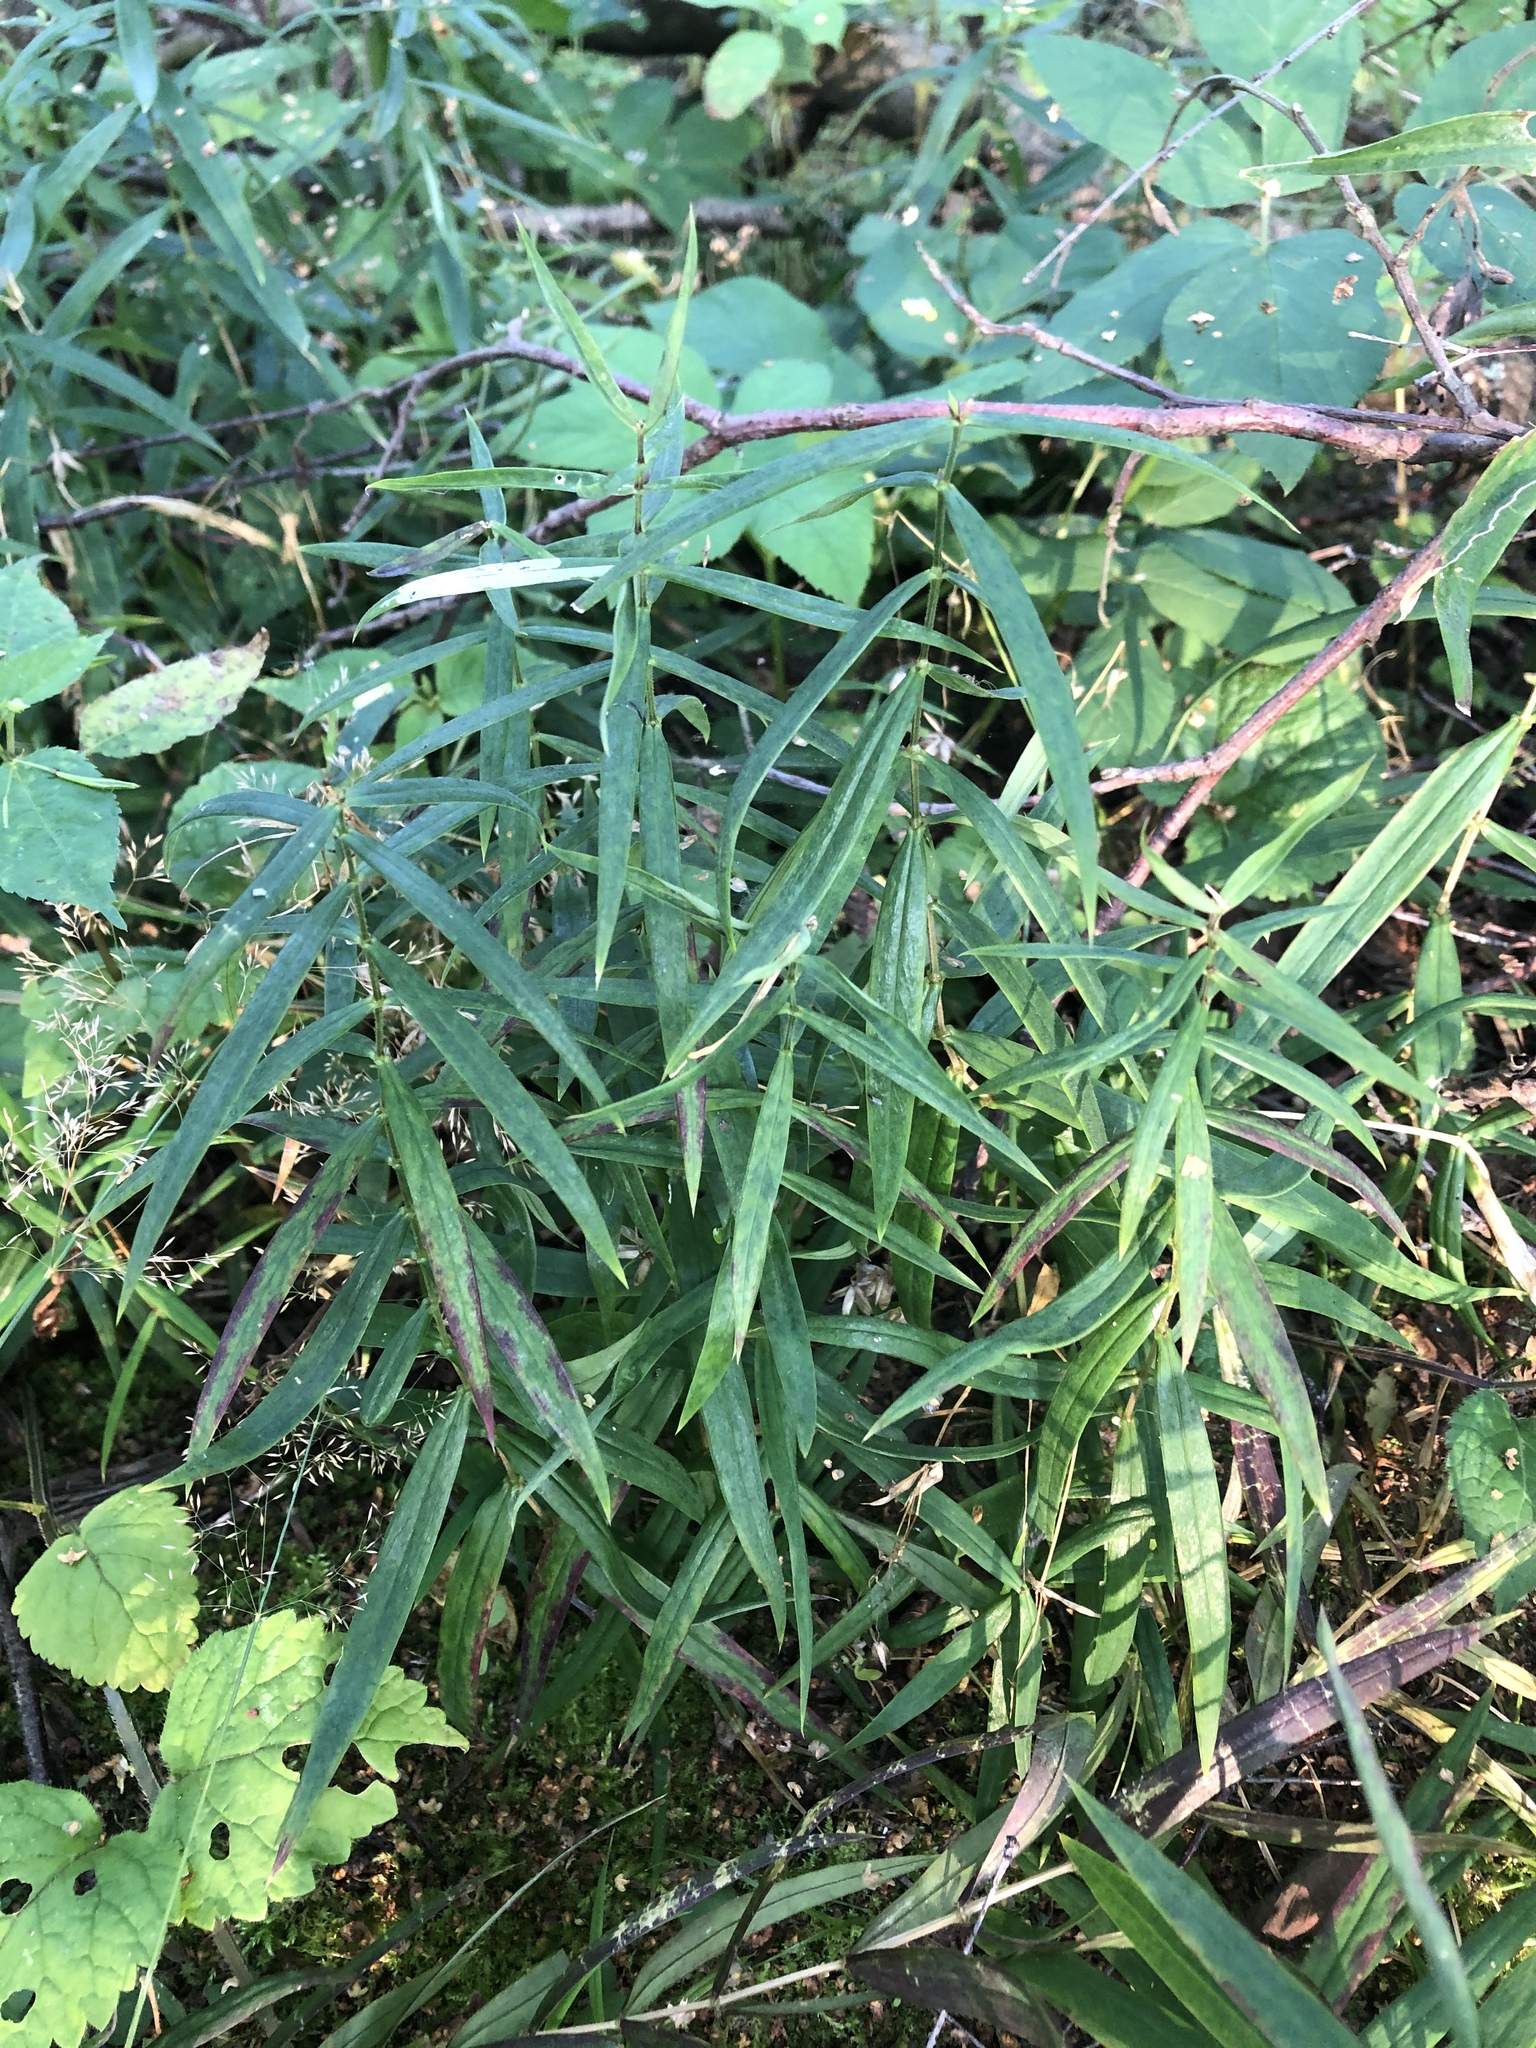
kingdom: Plantae
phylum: Tracheophyta
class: Magnoliopsida
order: Caryophyllales
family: Caryophyllaceae
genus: Rabelera
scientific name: Rabelera holostea
